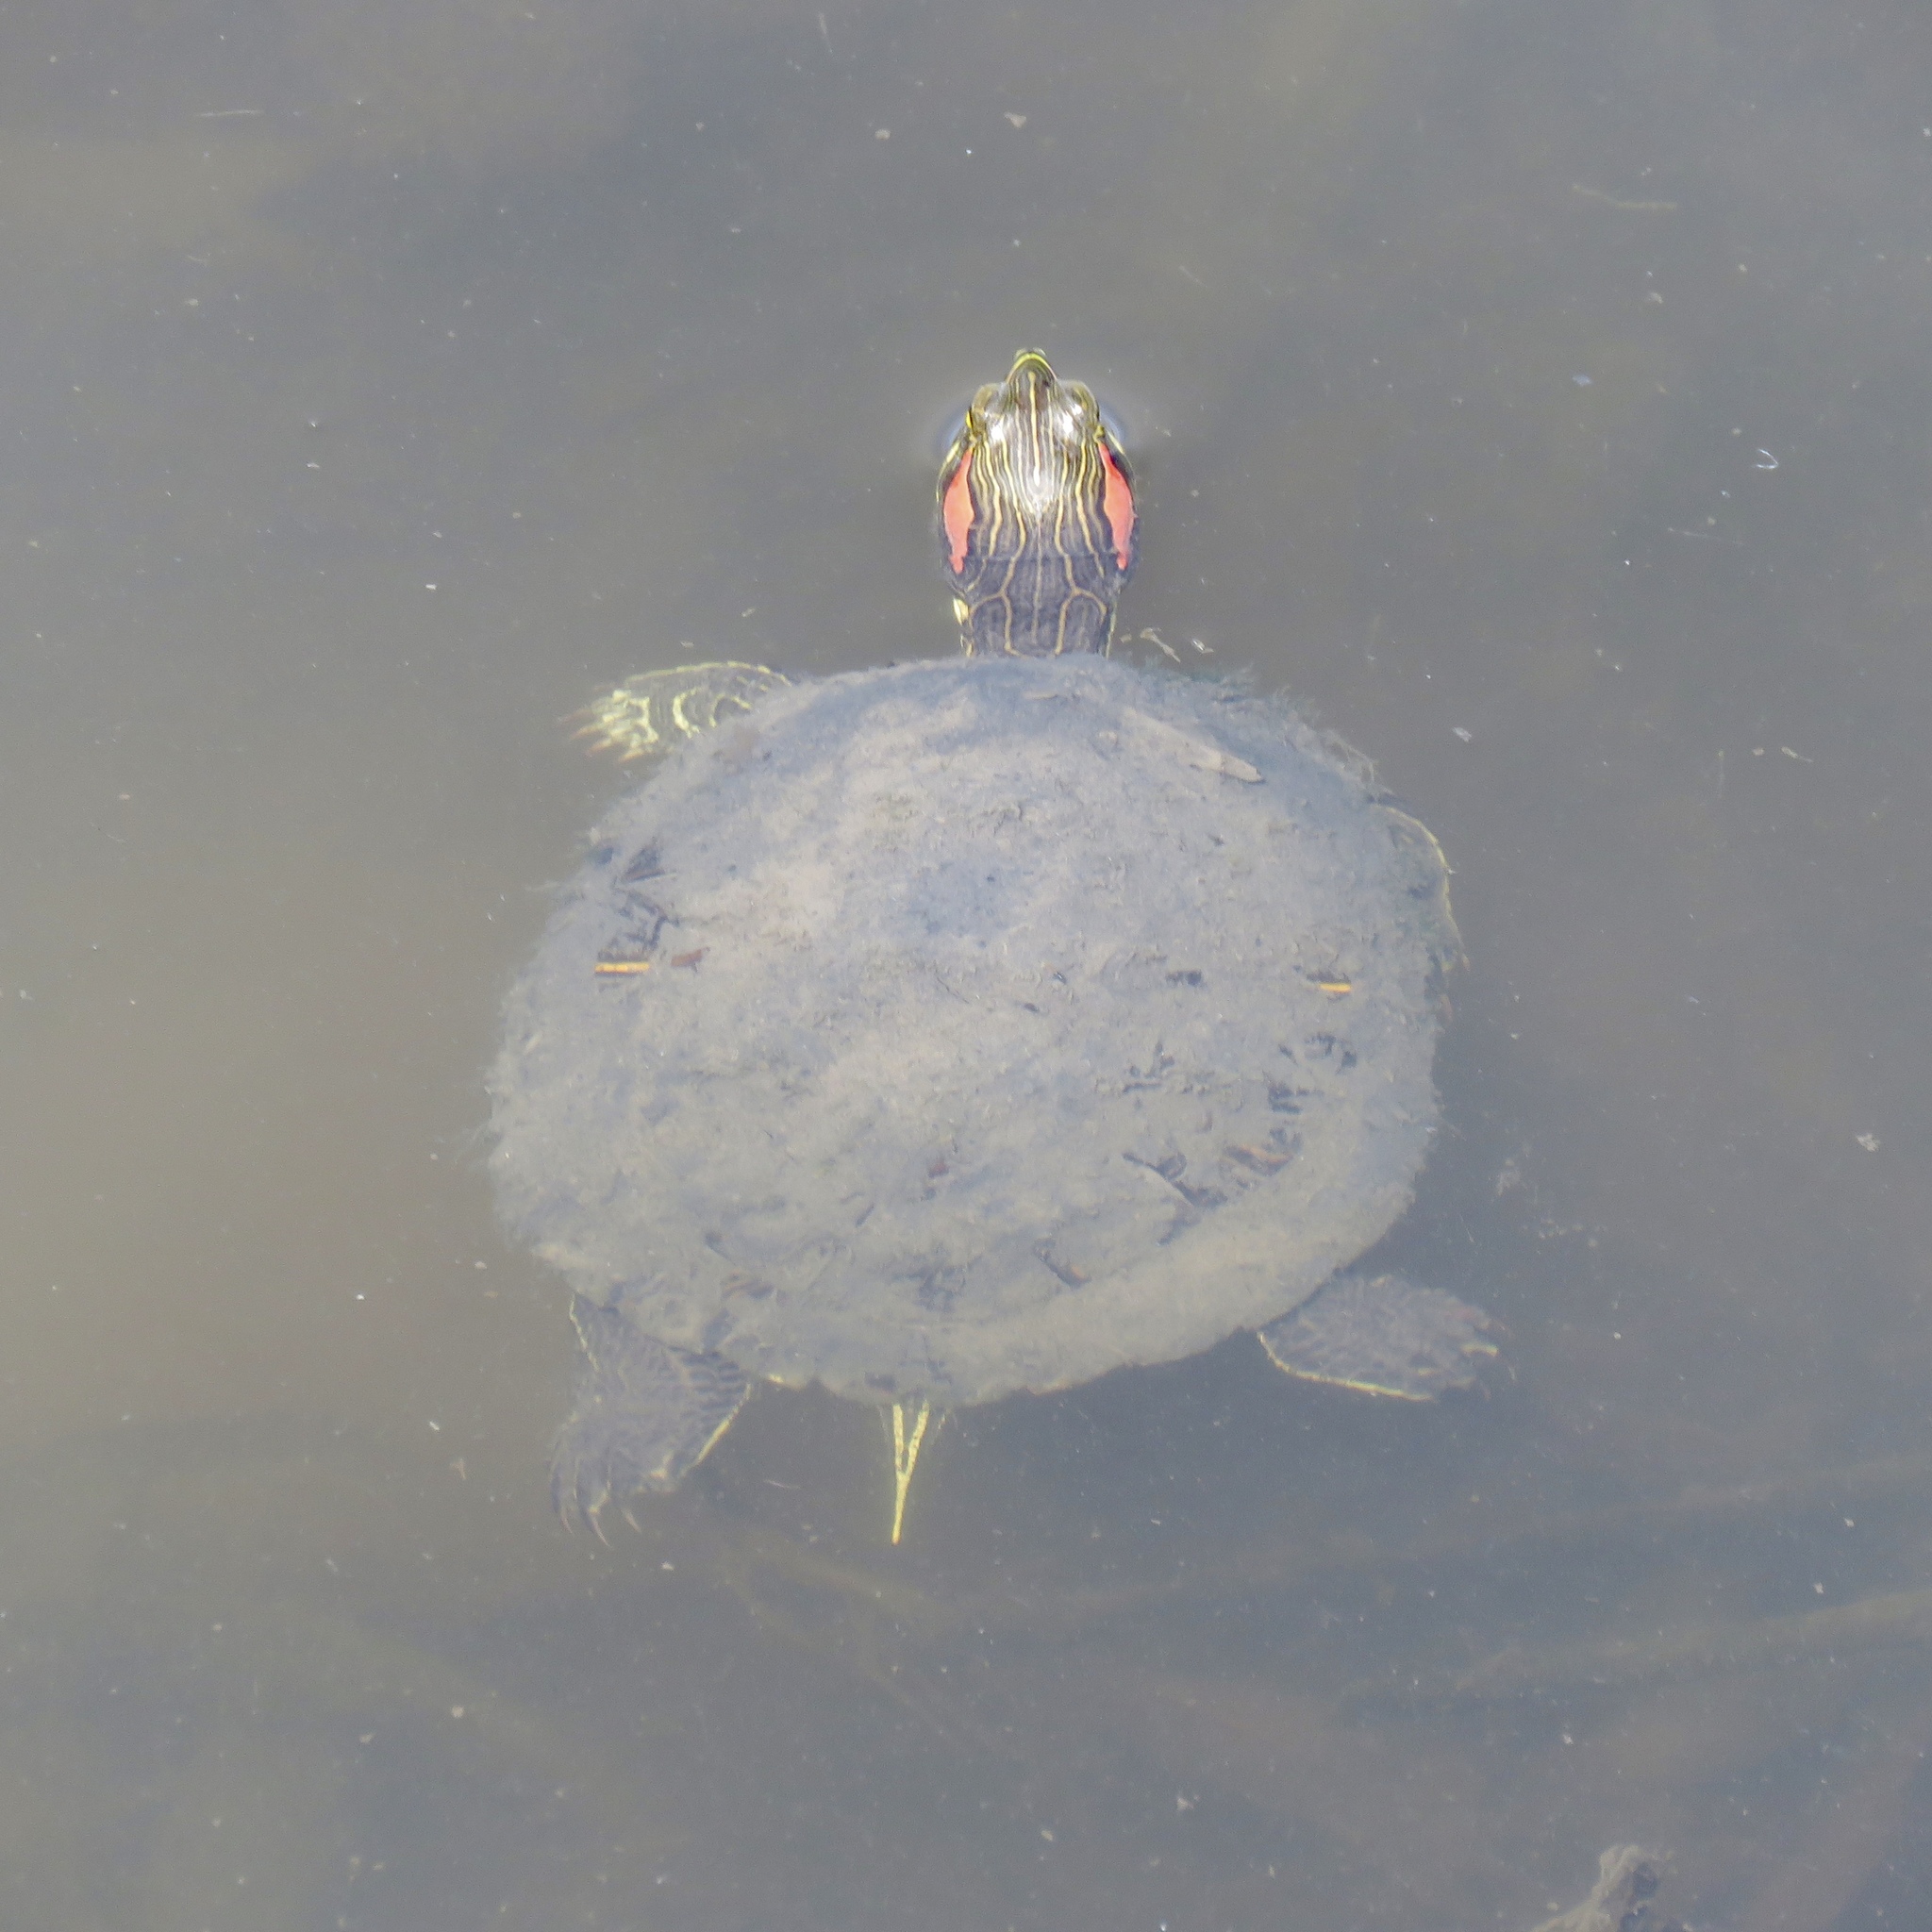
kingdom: Animalia
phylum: Chordata
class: Testudines
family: Emydidae
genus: Trachemys
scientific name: Trachemys scripta
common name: Slider
